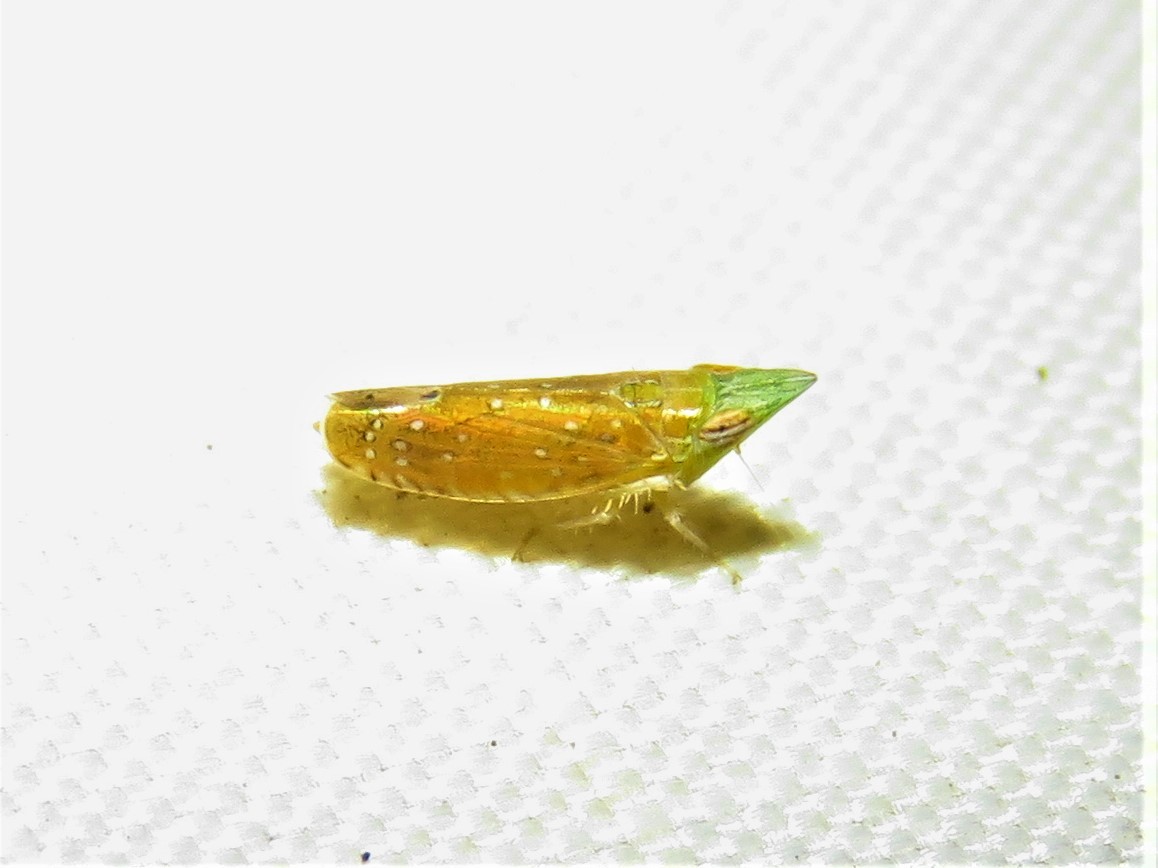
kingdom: Animalia
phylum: Arthropoda
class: Insecta
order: Hemiptera
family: Cicadellidae
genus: Scaphytopius
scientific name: Scaphytopius argutus
